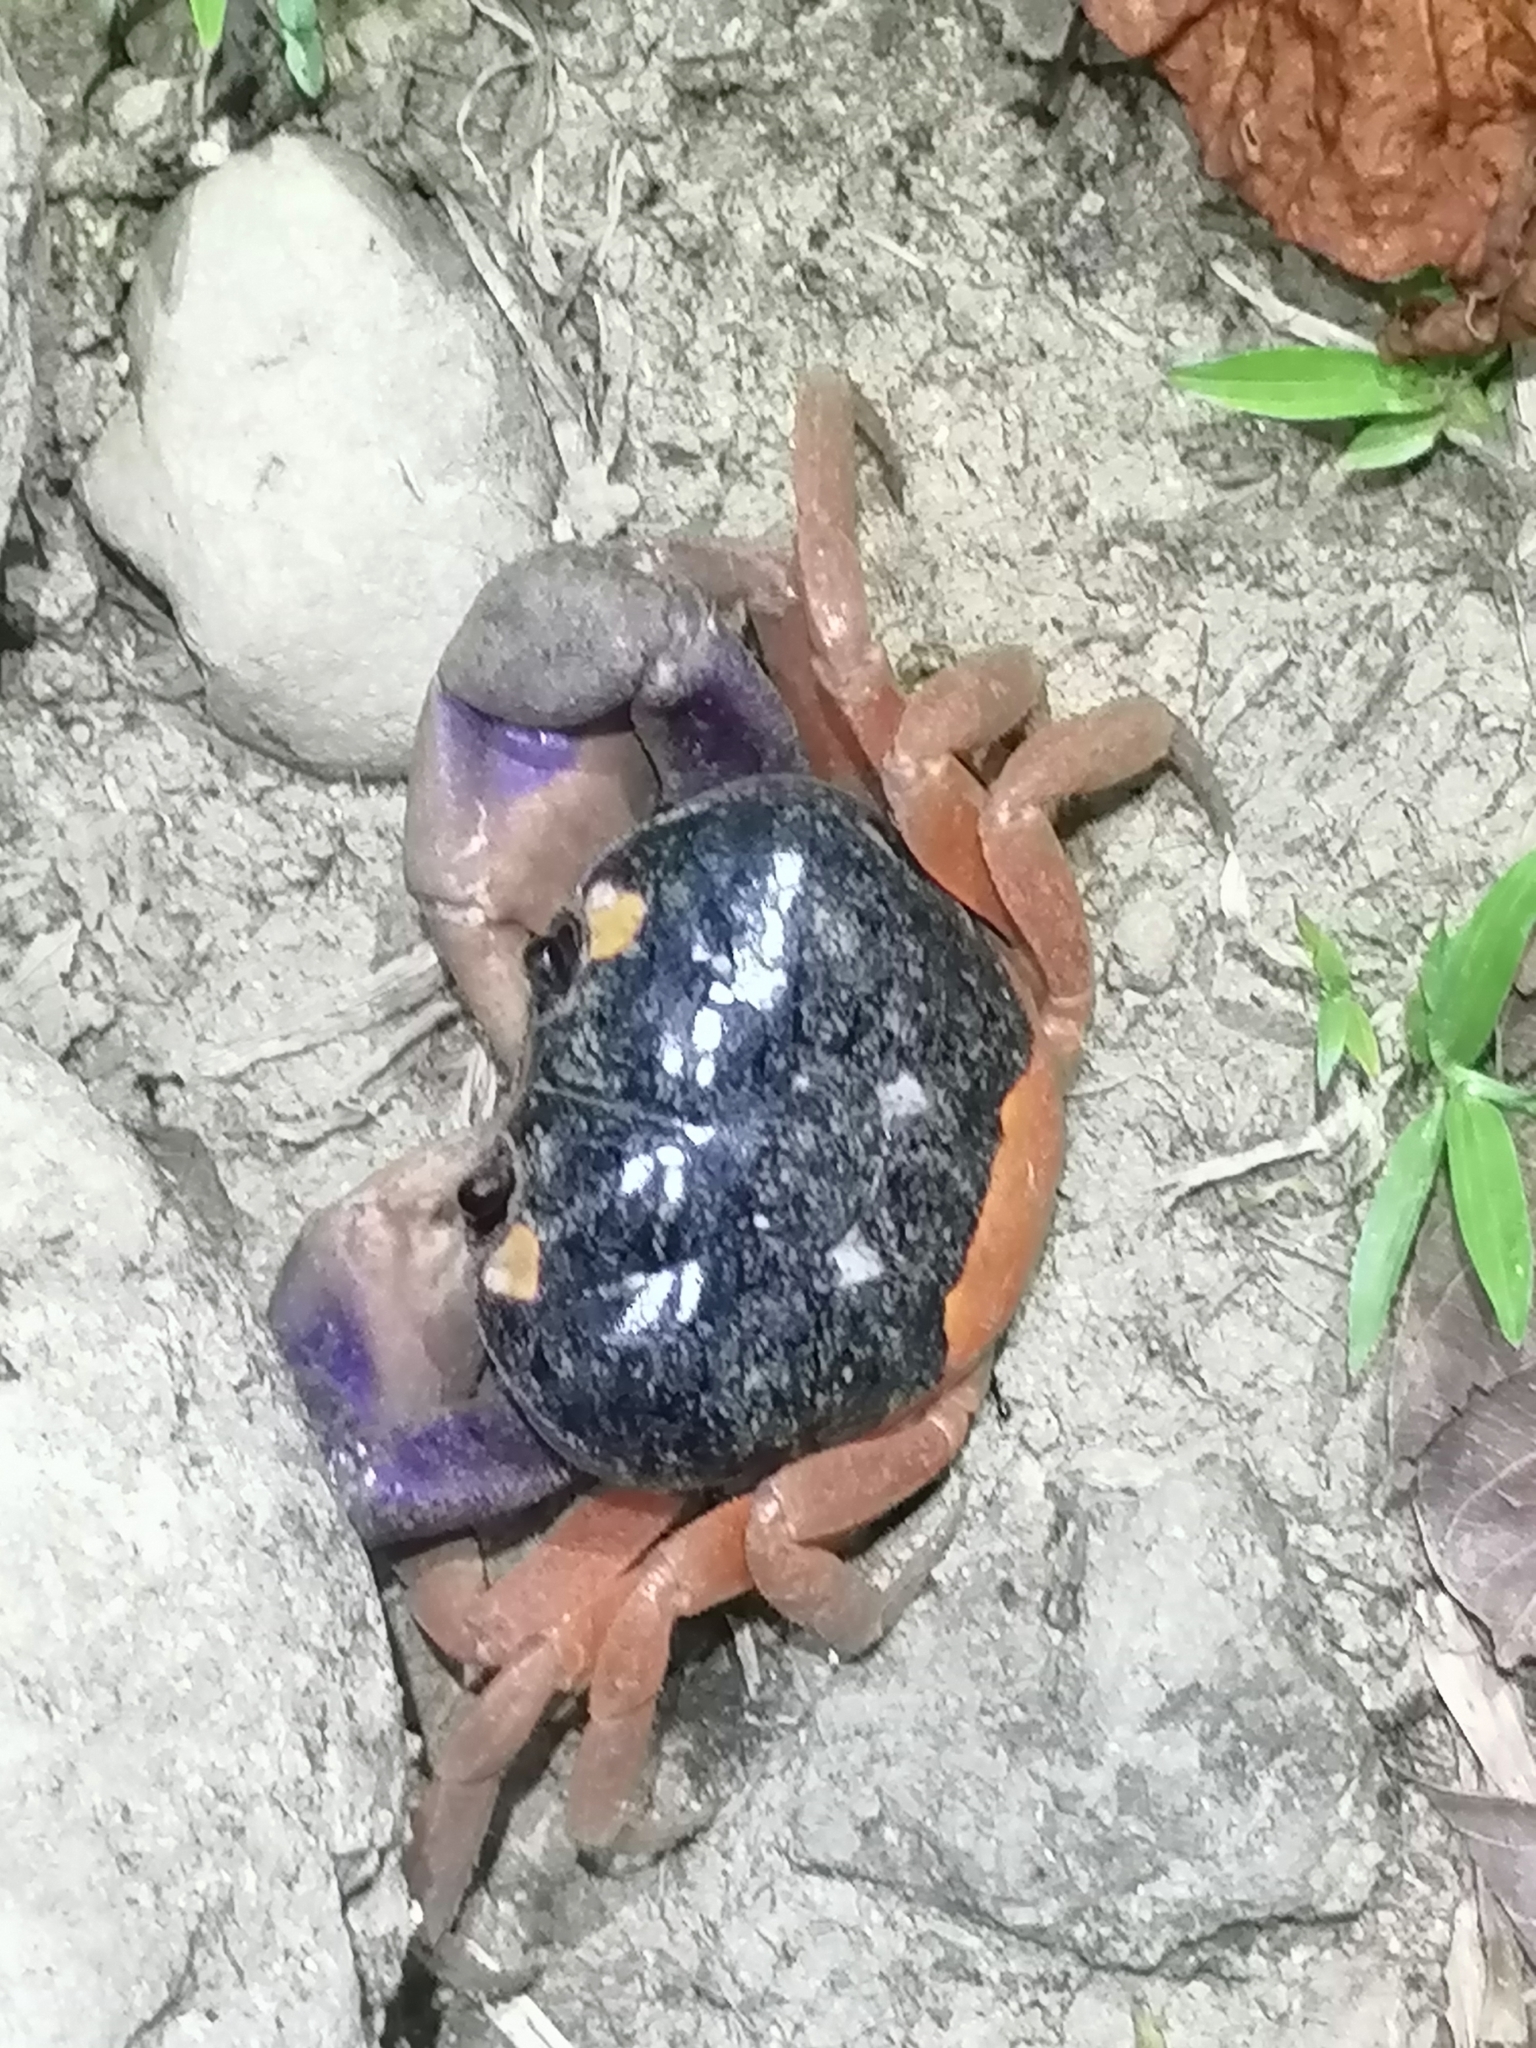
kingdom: Animalia
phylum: Arthropoda
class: Malacostraca
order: Decapoda
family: Gecarcinidae
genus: Gecarcinus
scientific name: Gecarcinus quadratus
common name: Halloween crab
